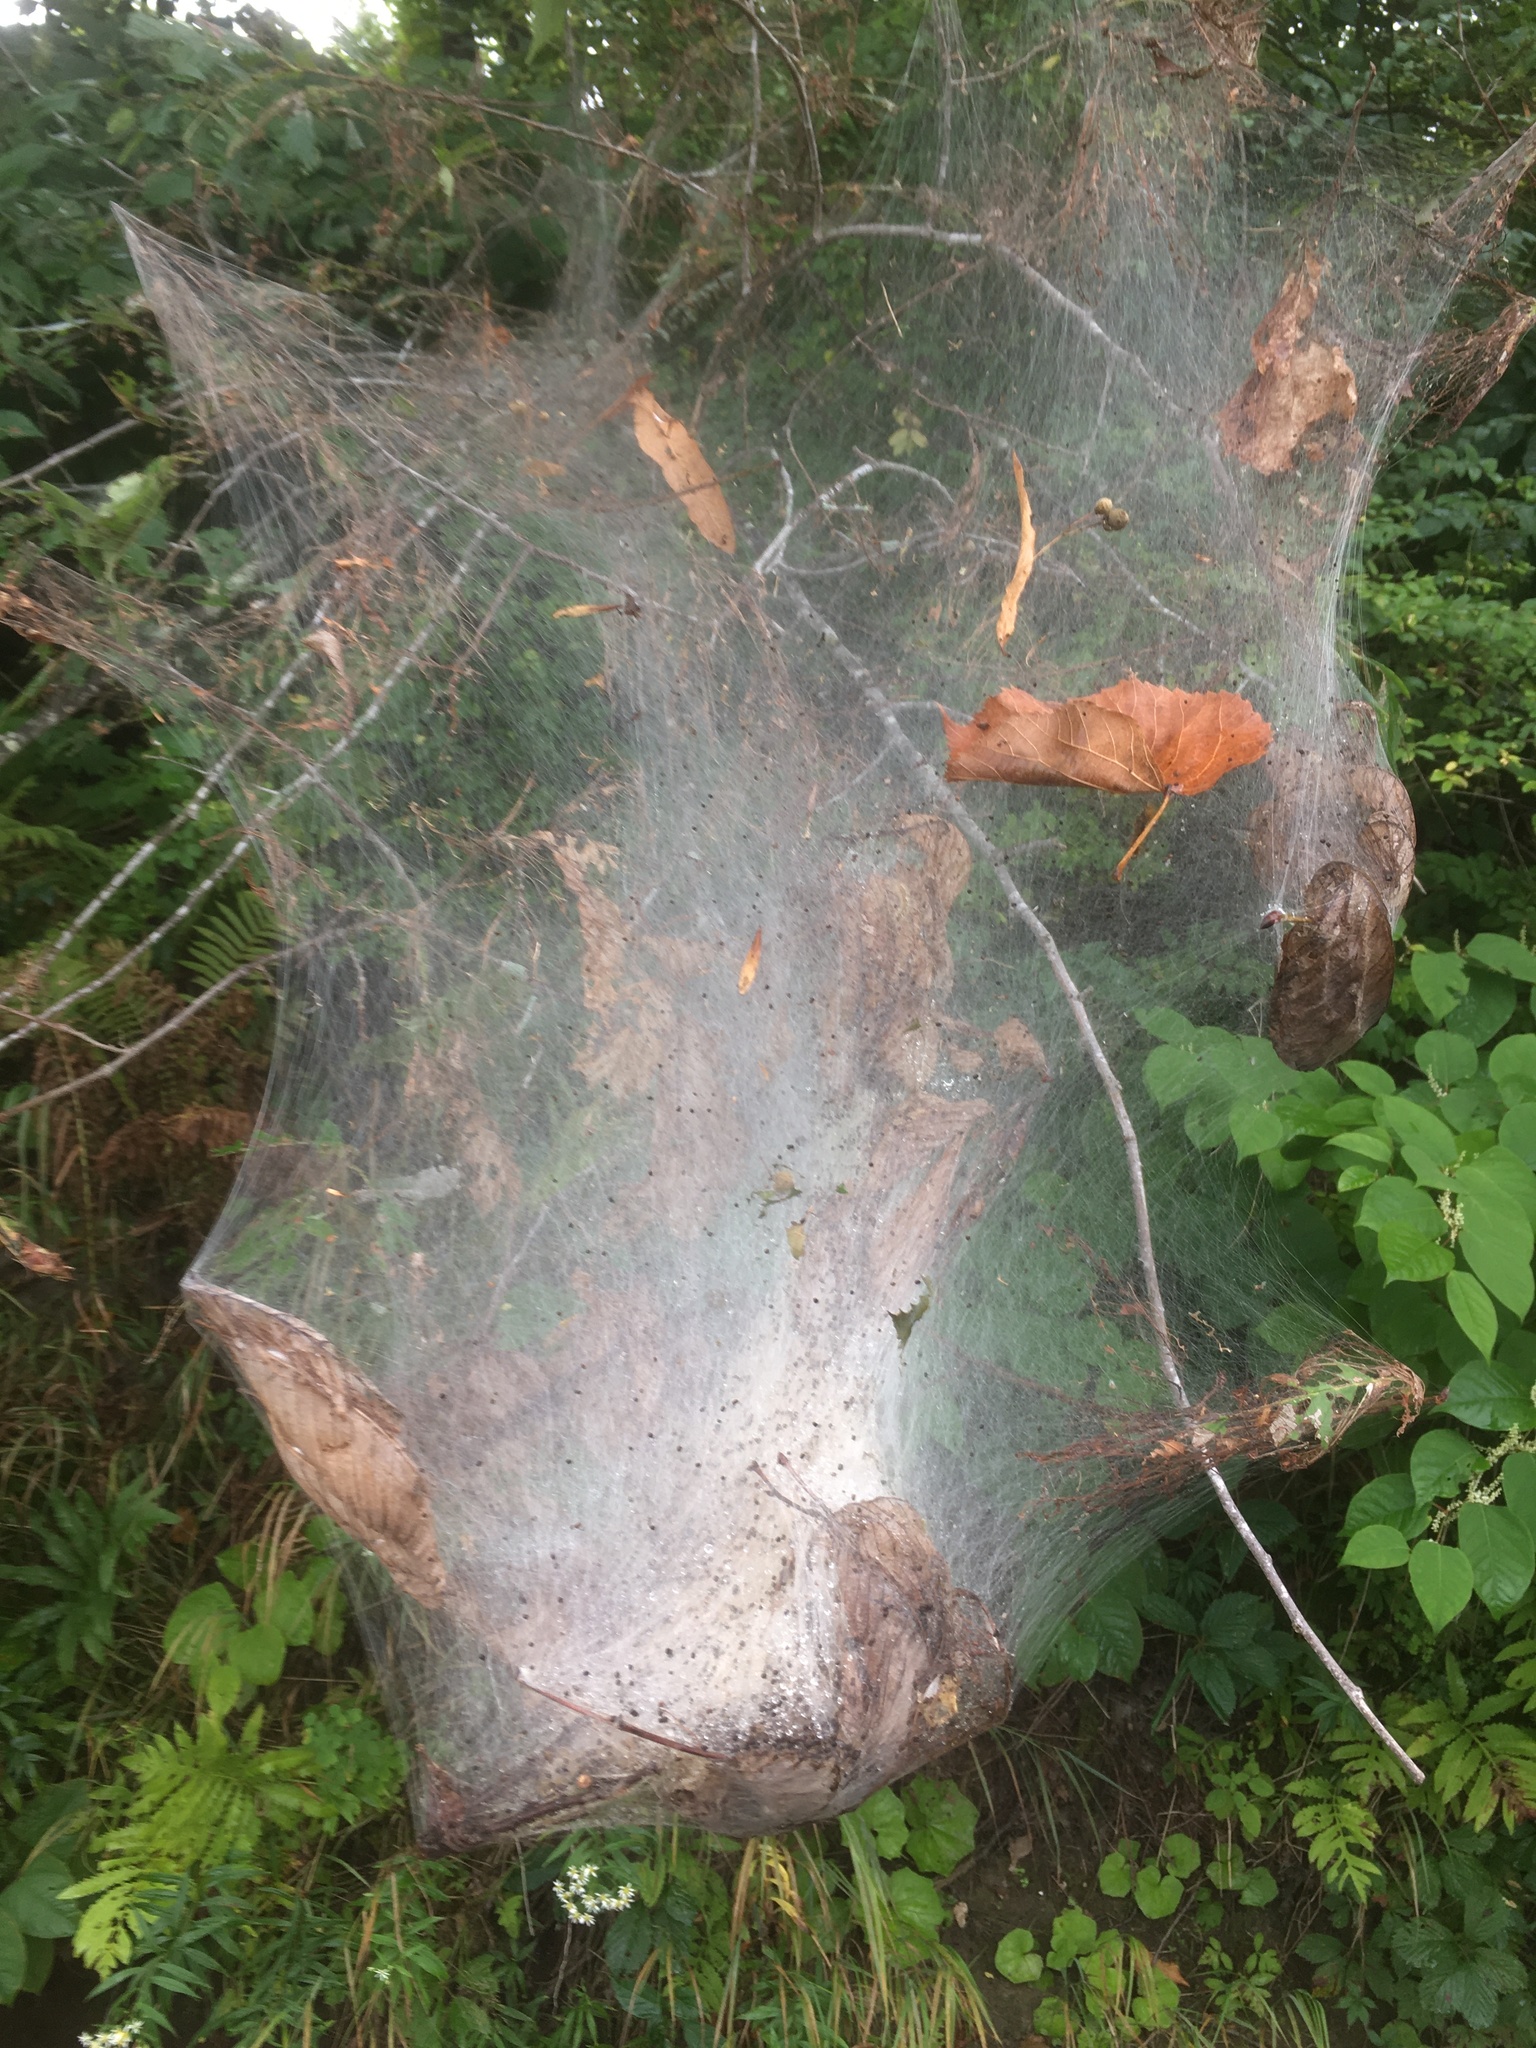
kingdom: Animalia
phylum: Arthropoda
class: Insecta
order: Lepidoptera
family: Erebidae
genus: Hyphantria
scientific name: Hyphantria cunea
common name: American white moth
